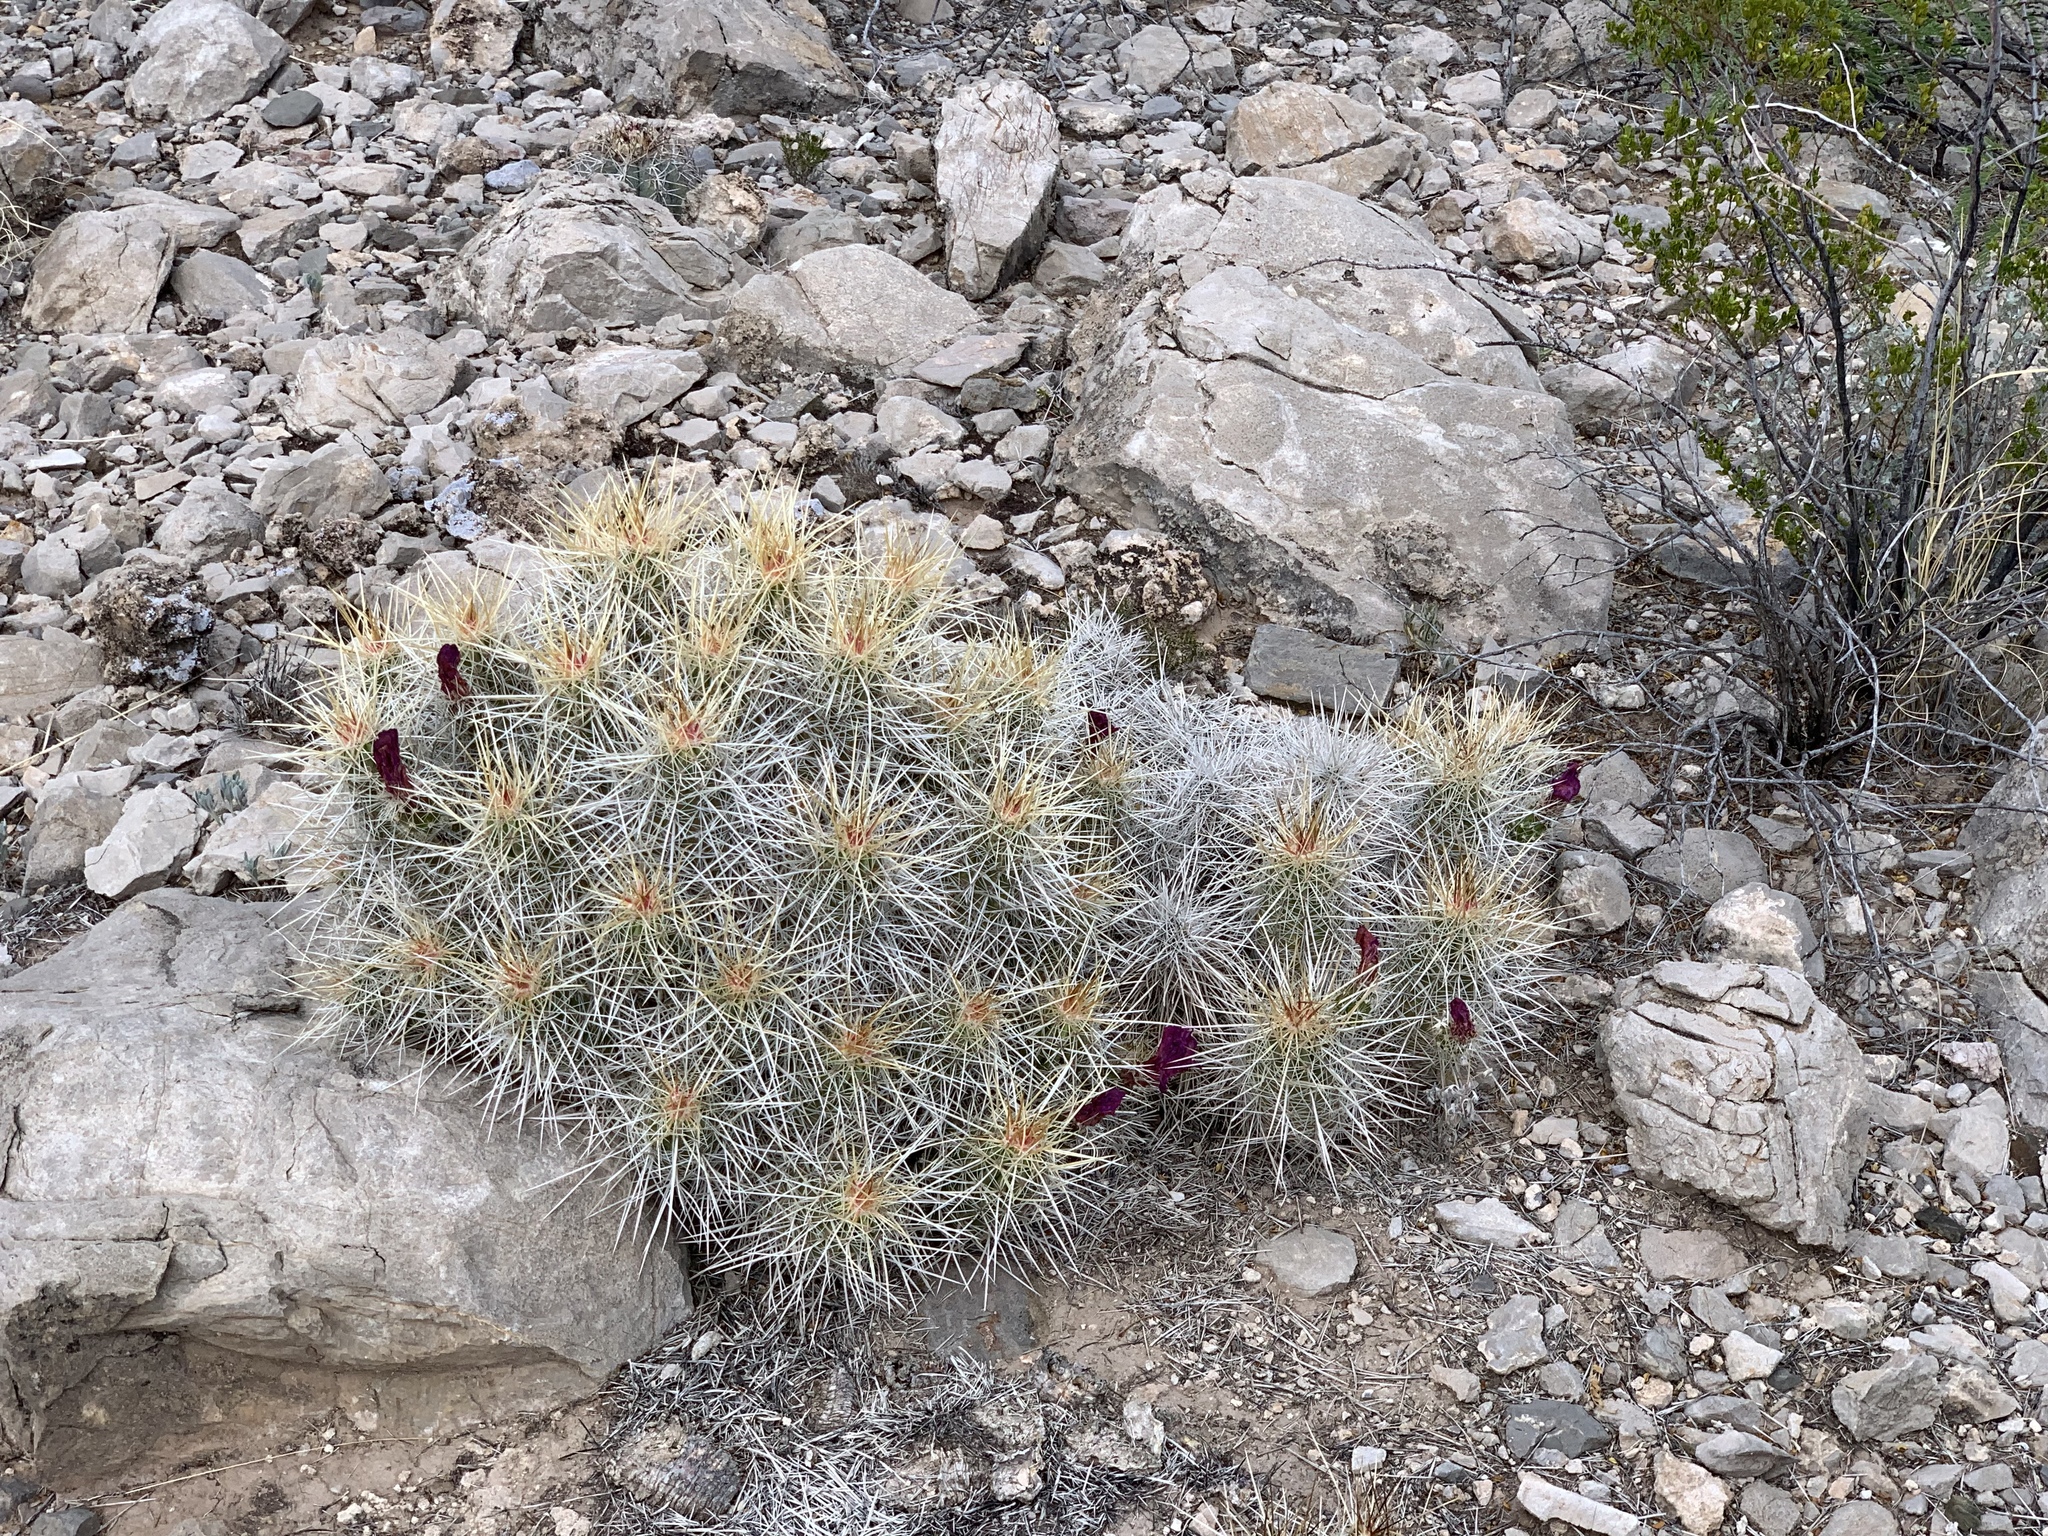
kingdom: Plantae
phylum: Tracheophyta
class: Magnoliopsida
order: Caryophyllales
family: Cactaceae
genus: Echinocereus
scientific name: Echinocereus stramineus
